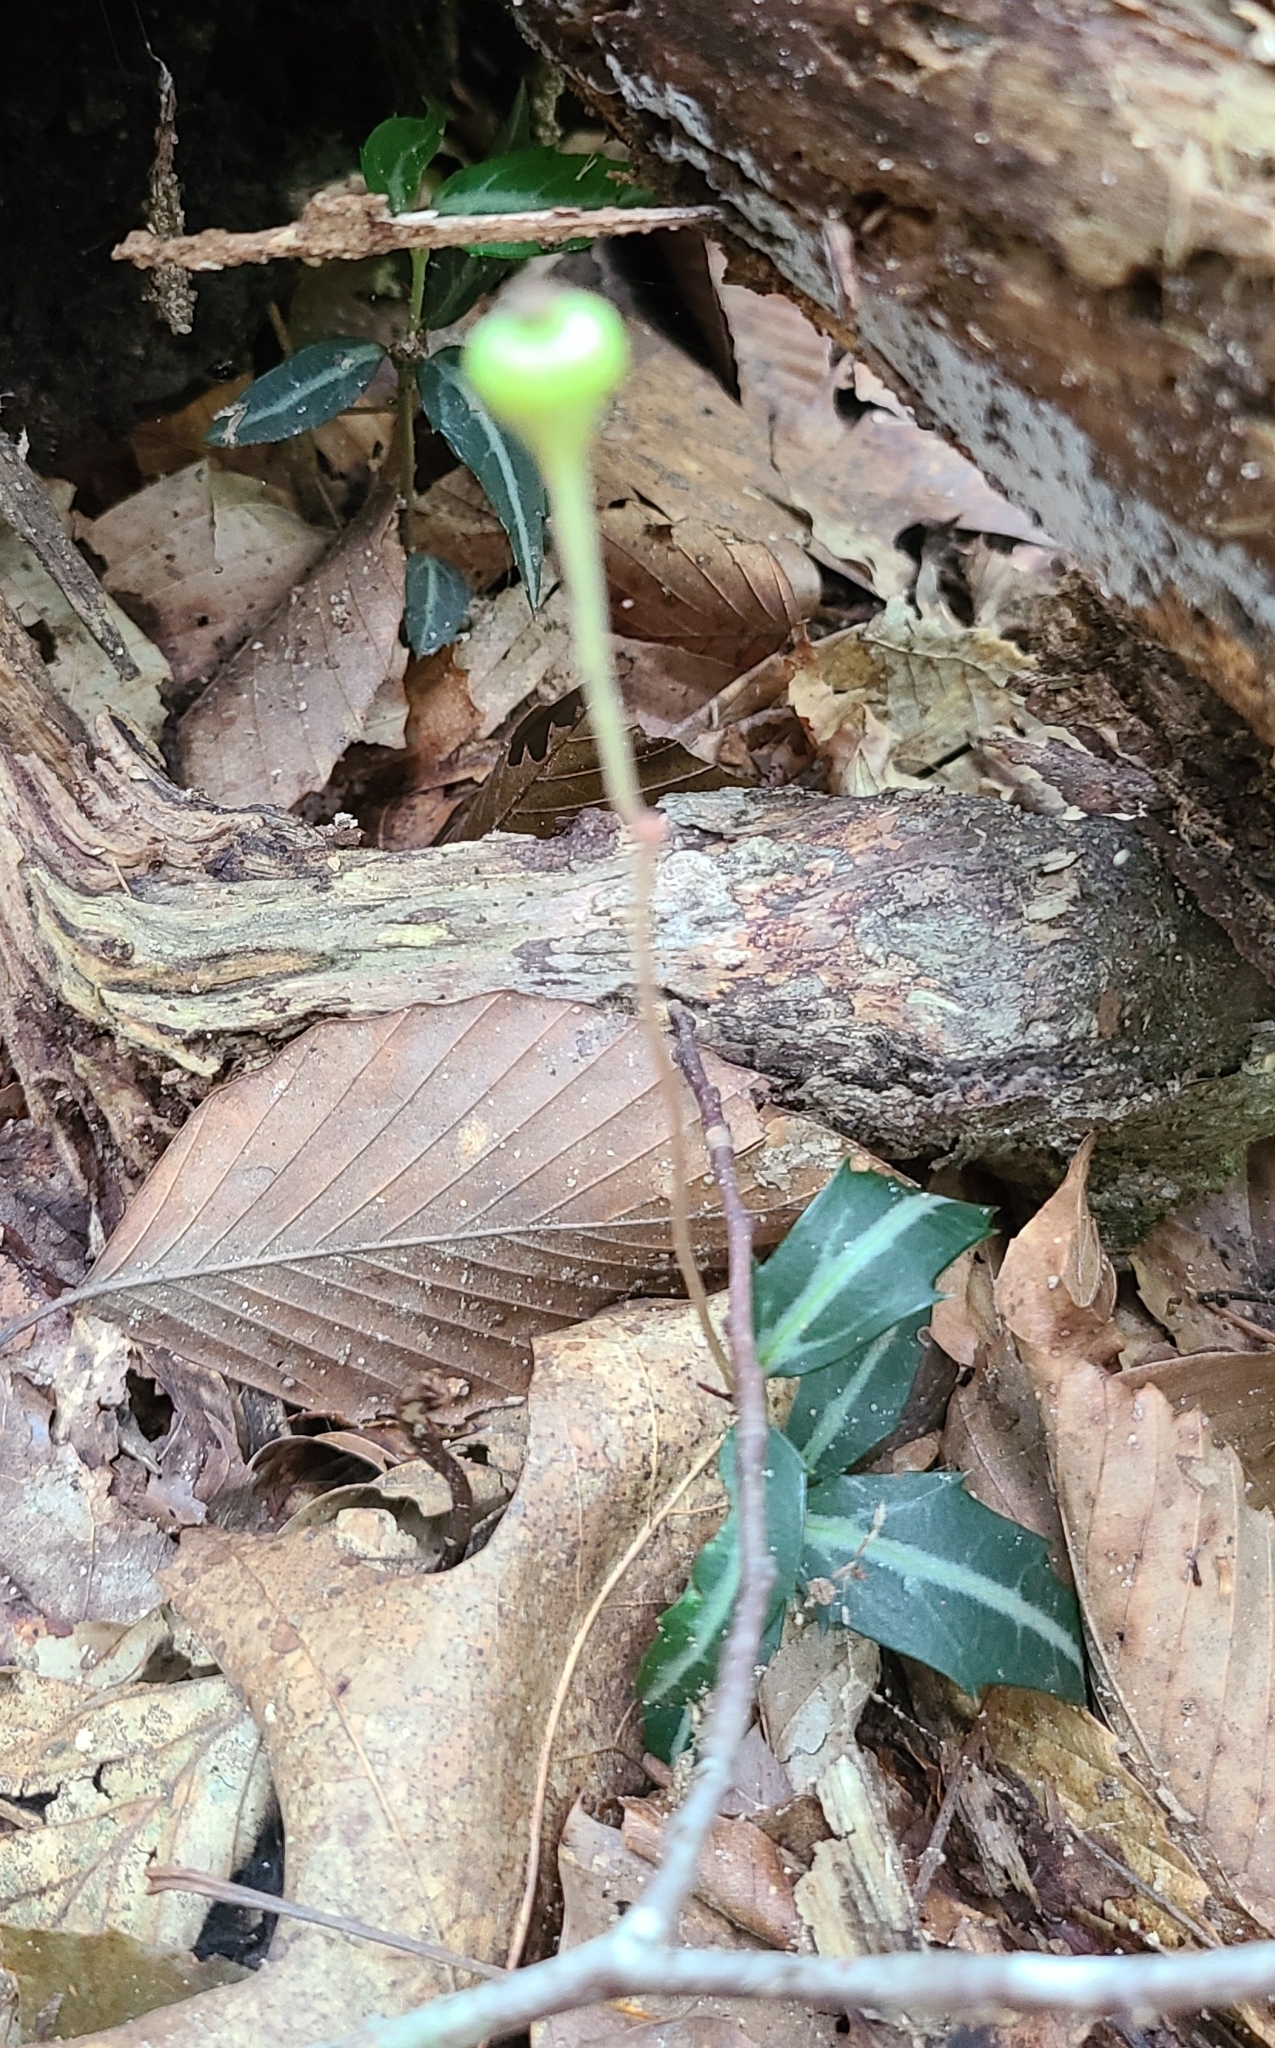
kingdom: Plantae
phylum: Tracheophyta
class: Magnoliopsida
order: Ericales
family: Ericaceae
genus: Chimaphila
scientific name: Chimaphila maculata
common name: Spotted pipsissewa
